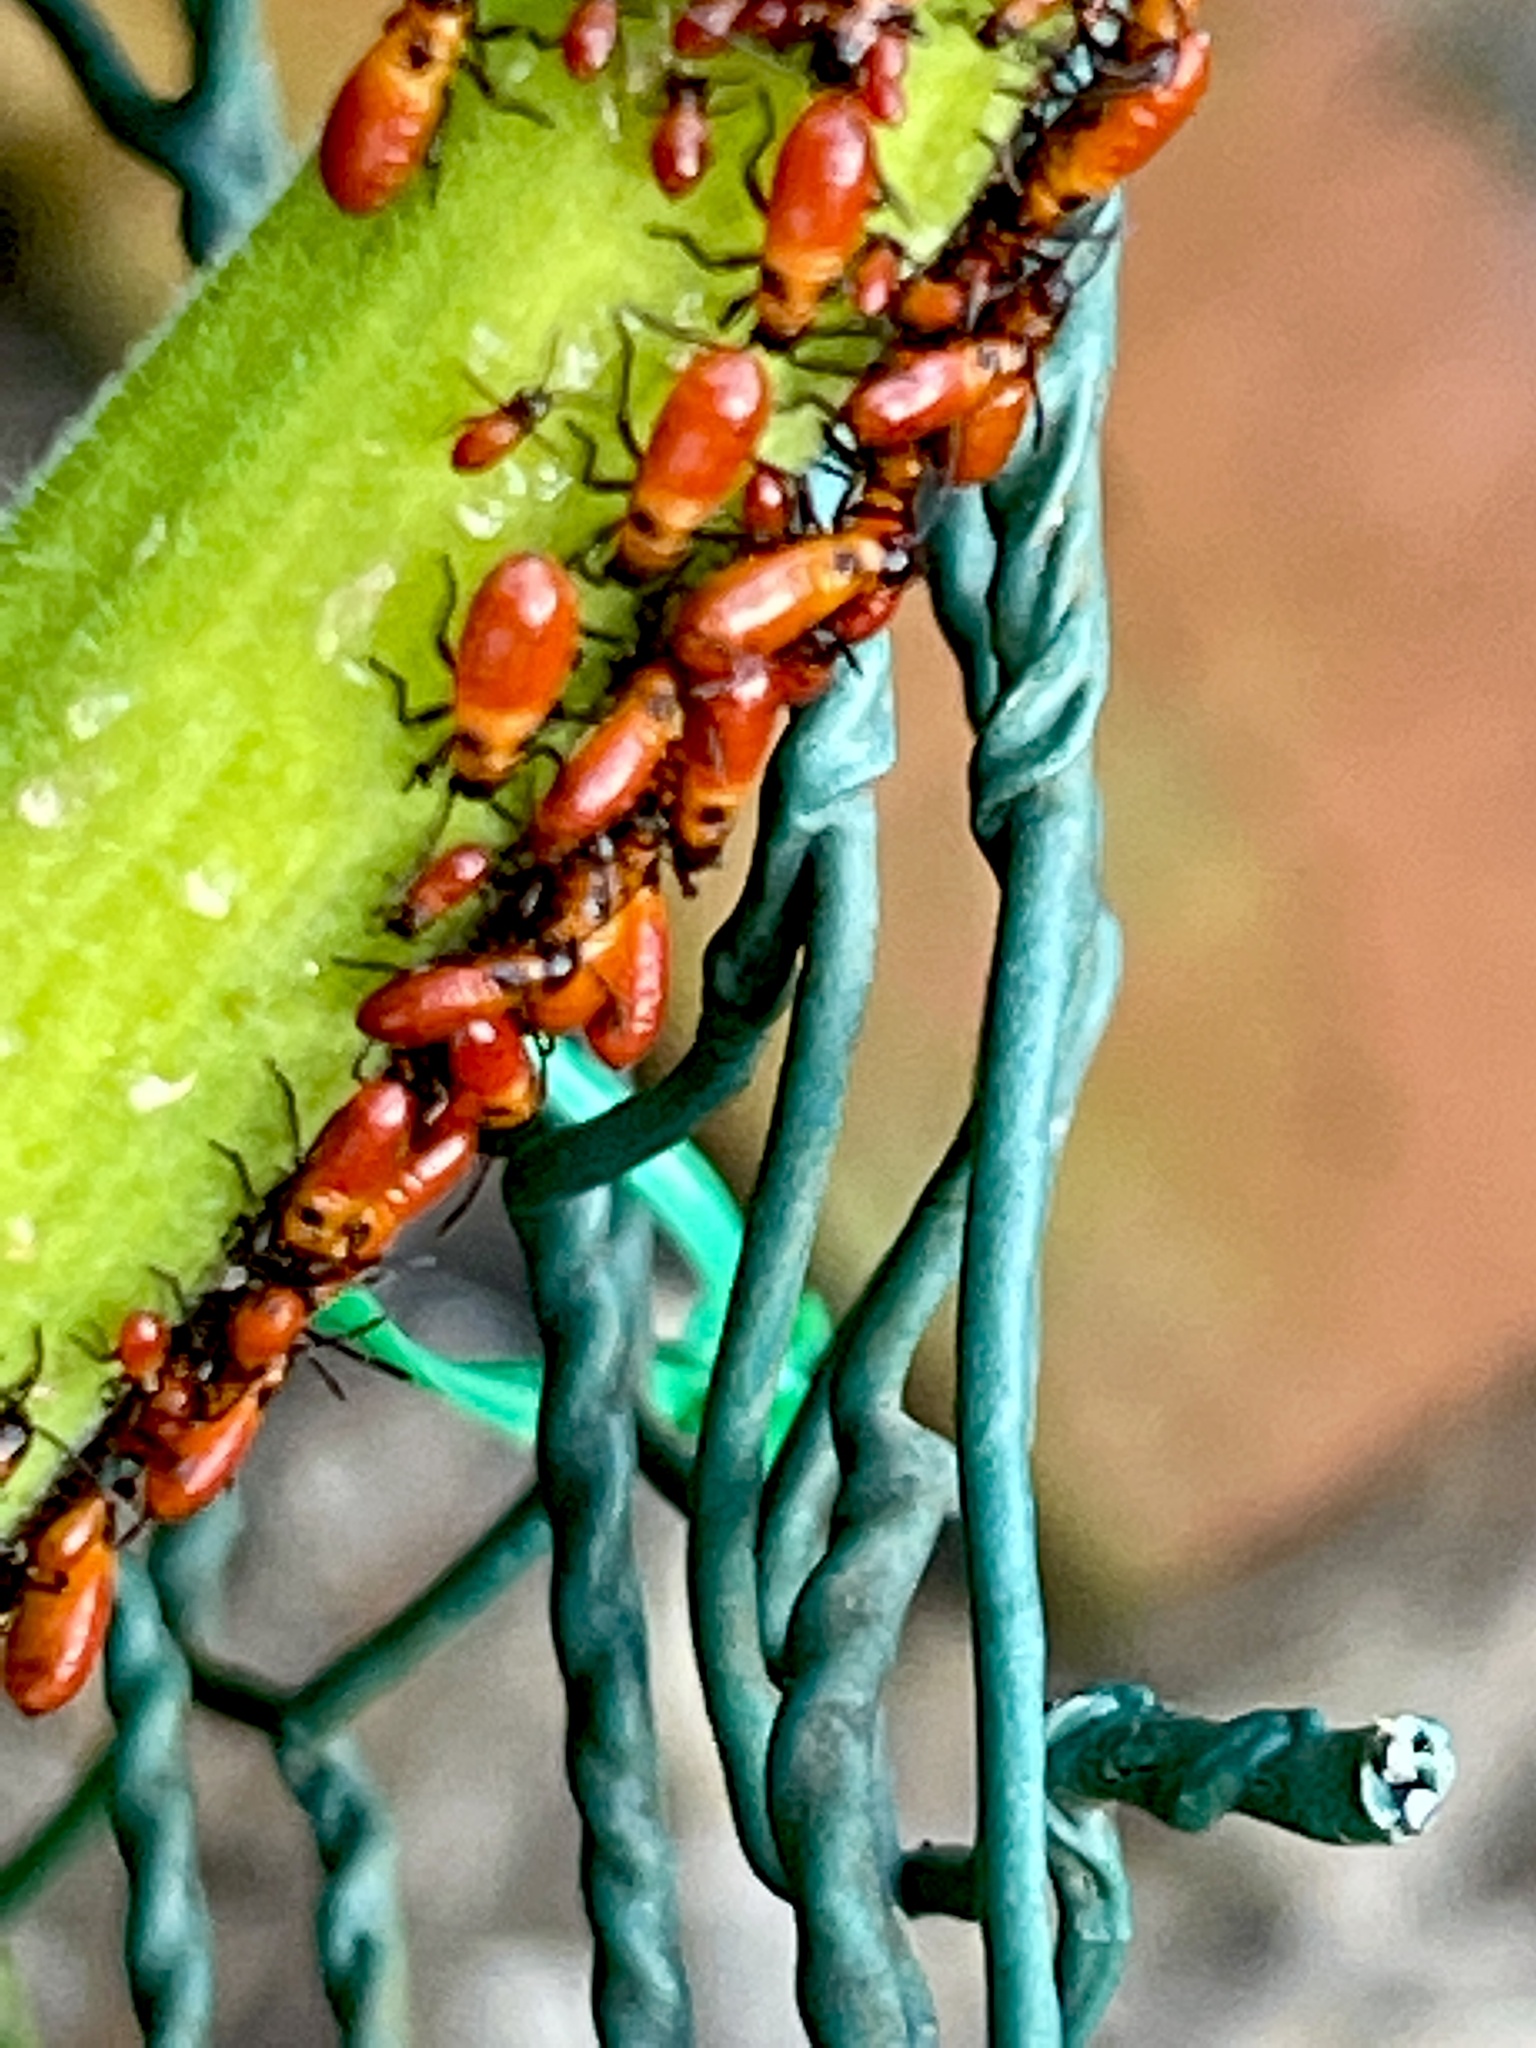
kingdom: Animalia
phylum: Arthropoda
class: Insecta
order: Hemiptera
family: Lygaeidae
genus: Oncopeltus
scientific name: Oncopeltus fasciatus
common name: Large milkweed bug
